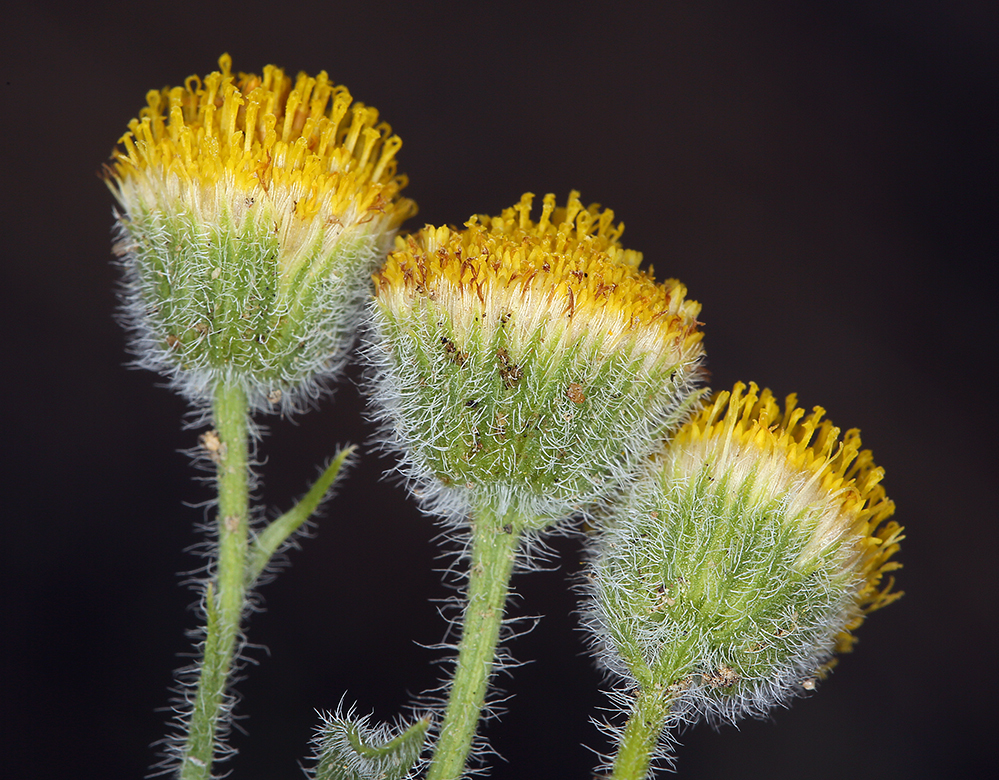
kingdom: Plantae
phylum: Tracheophyta
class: Magnoliopsida
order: Asterales
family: Asteraceae
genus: Erigeron
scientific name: Erigeron aphanactis
